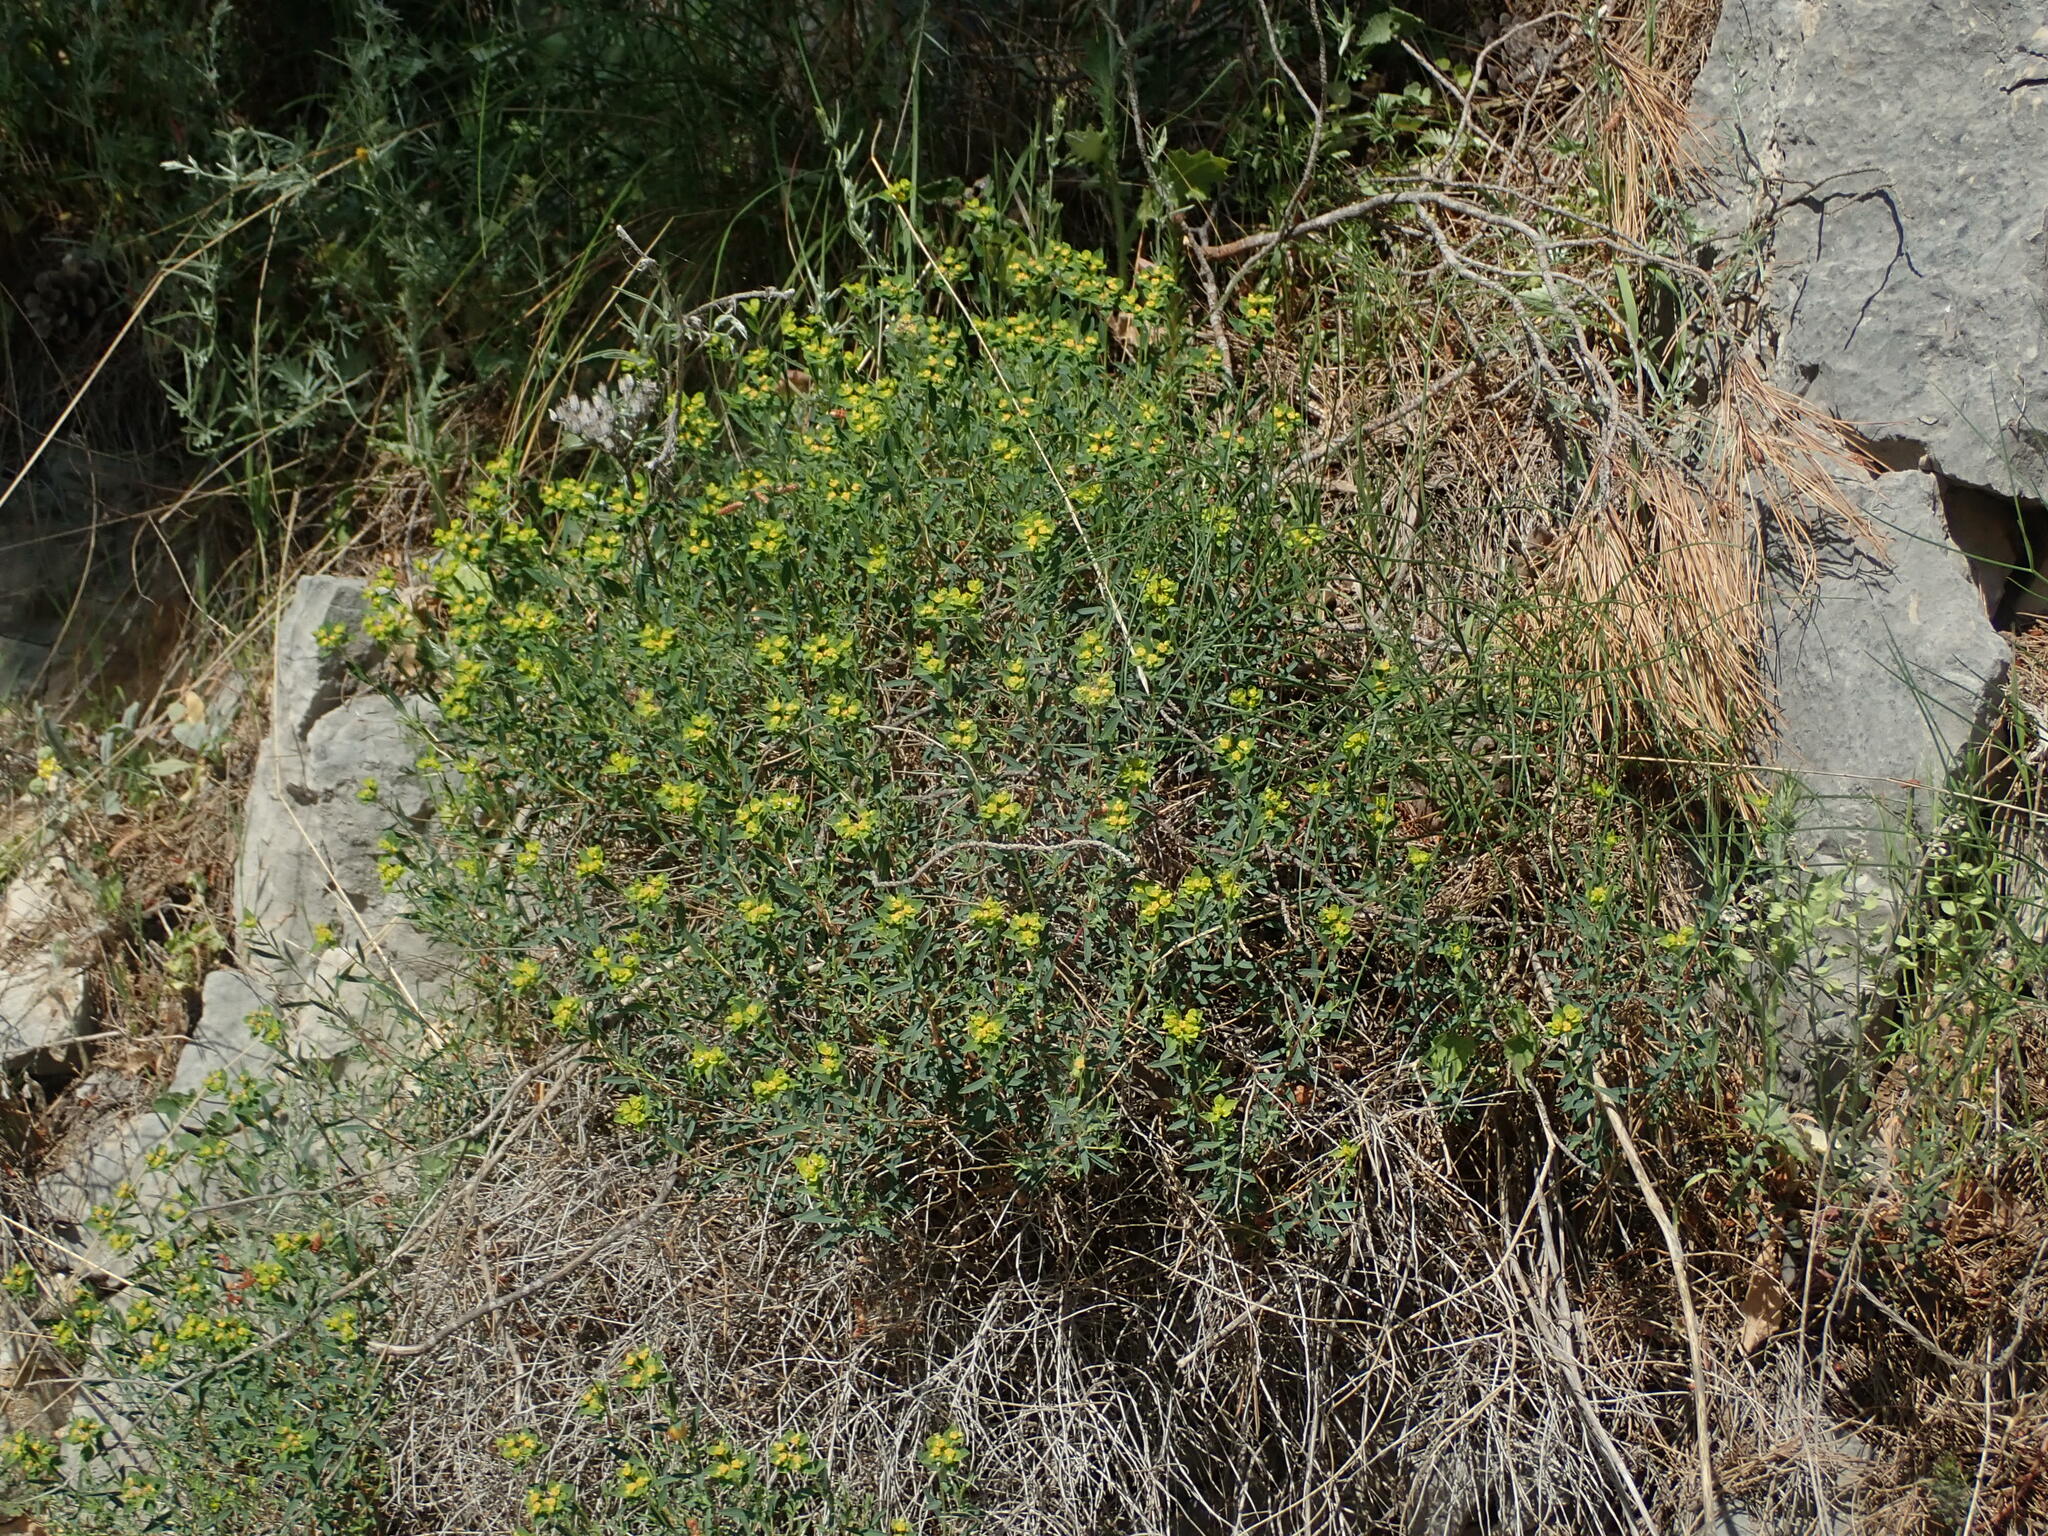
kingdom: Plantae
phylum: Tracheophyta
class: Magnoliopsida
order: Malpighiales
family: Euphorbiaceae
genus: Euphorbia
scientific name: Euphorbia spinosa
